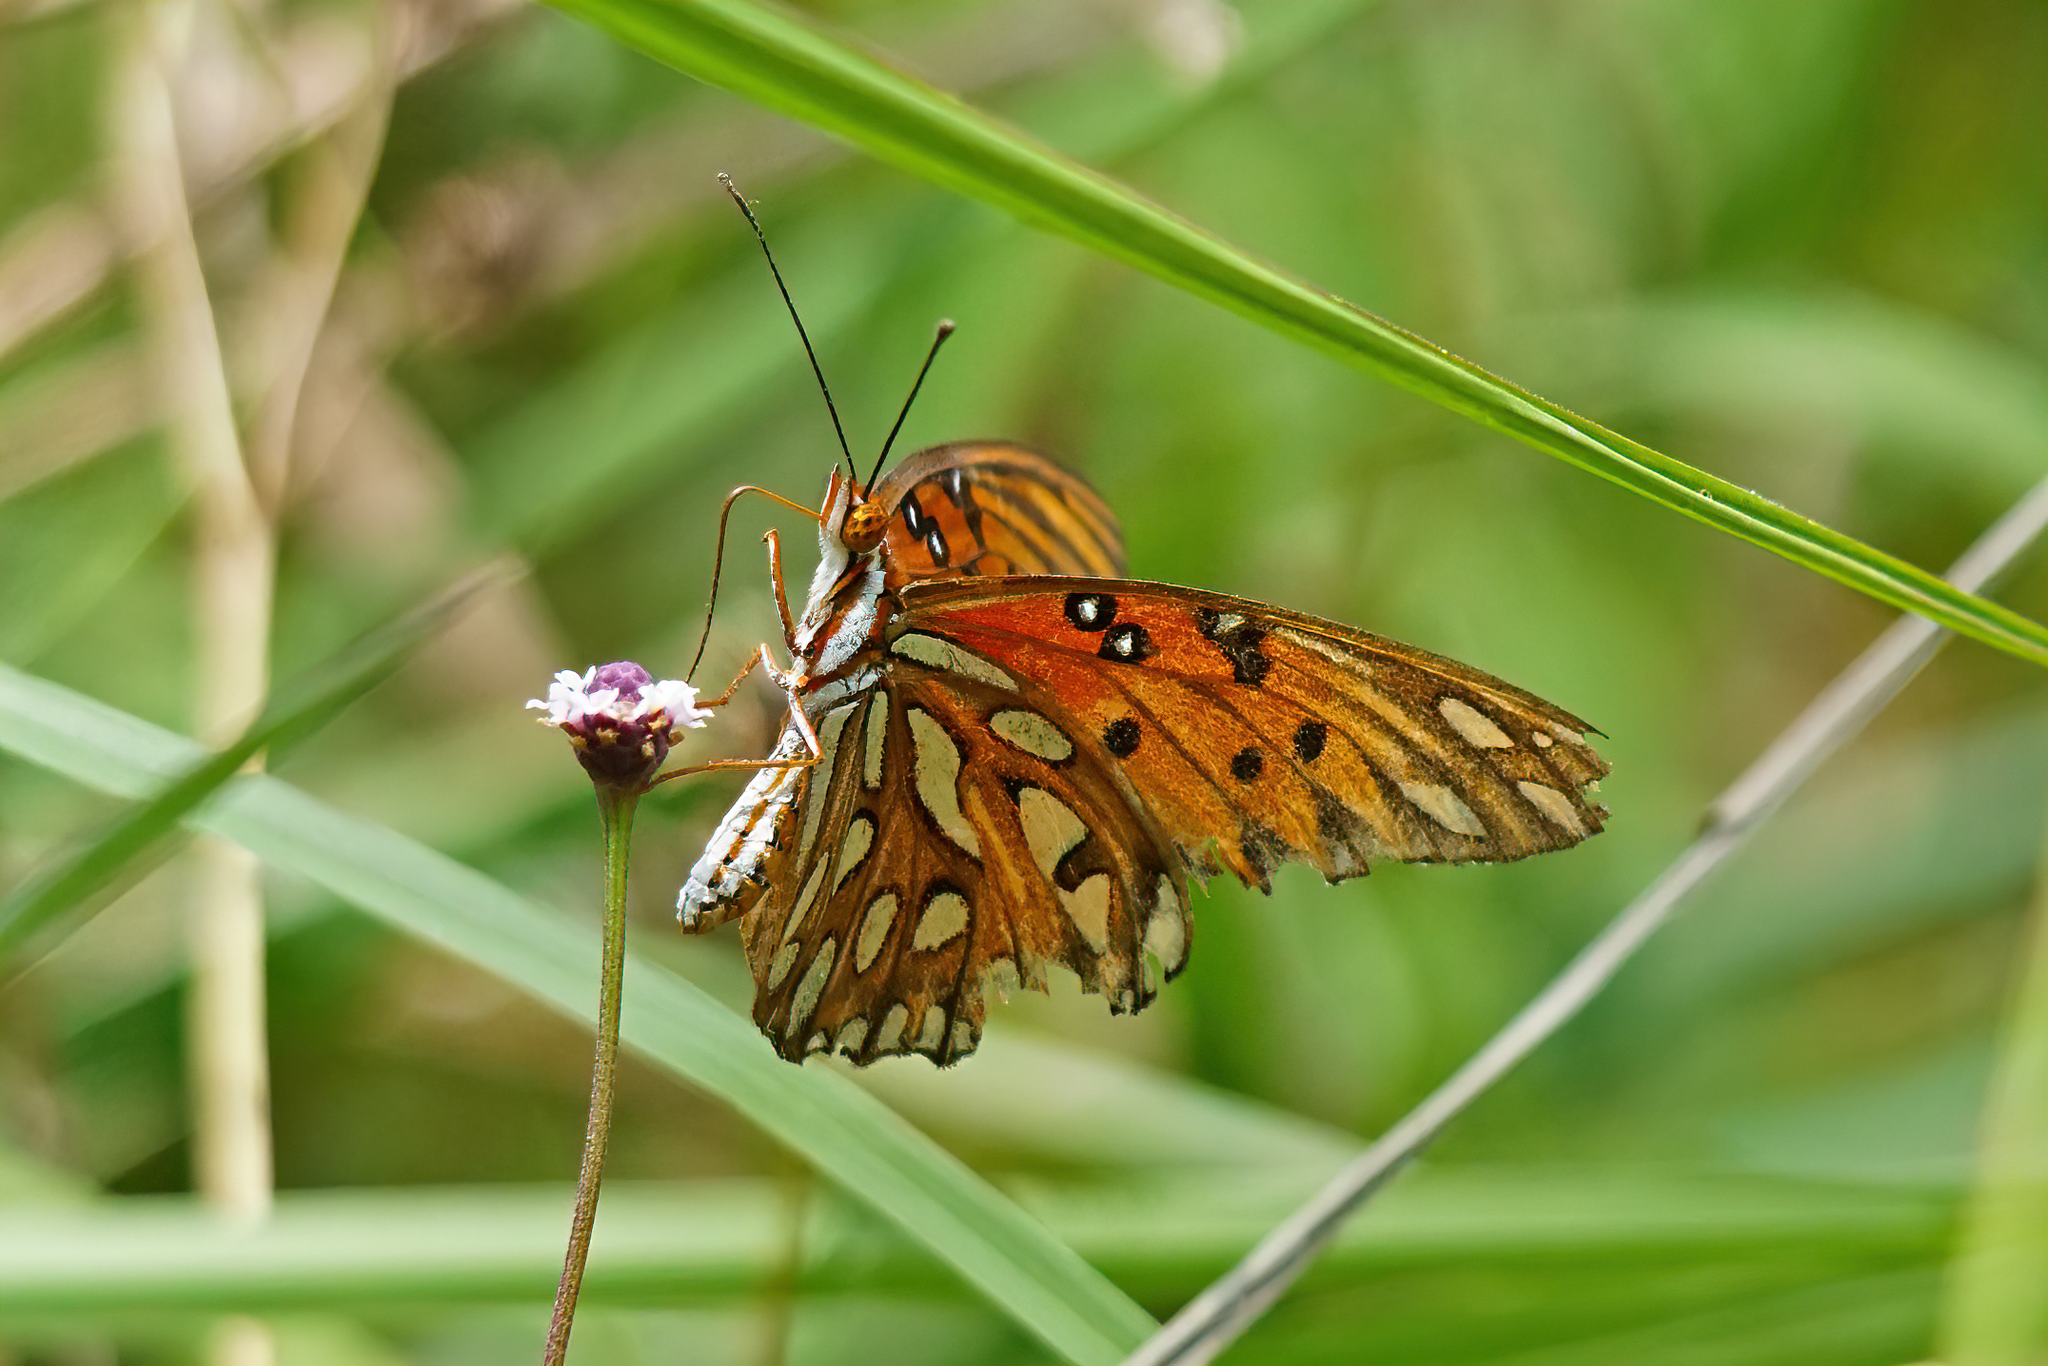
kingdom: Animalia
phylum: Arthropoda
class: Insecta
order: Lepidoptera
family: Nymphalidae
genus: Dione
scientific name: Dione vanillae
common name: Gulf fritillary
